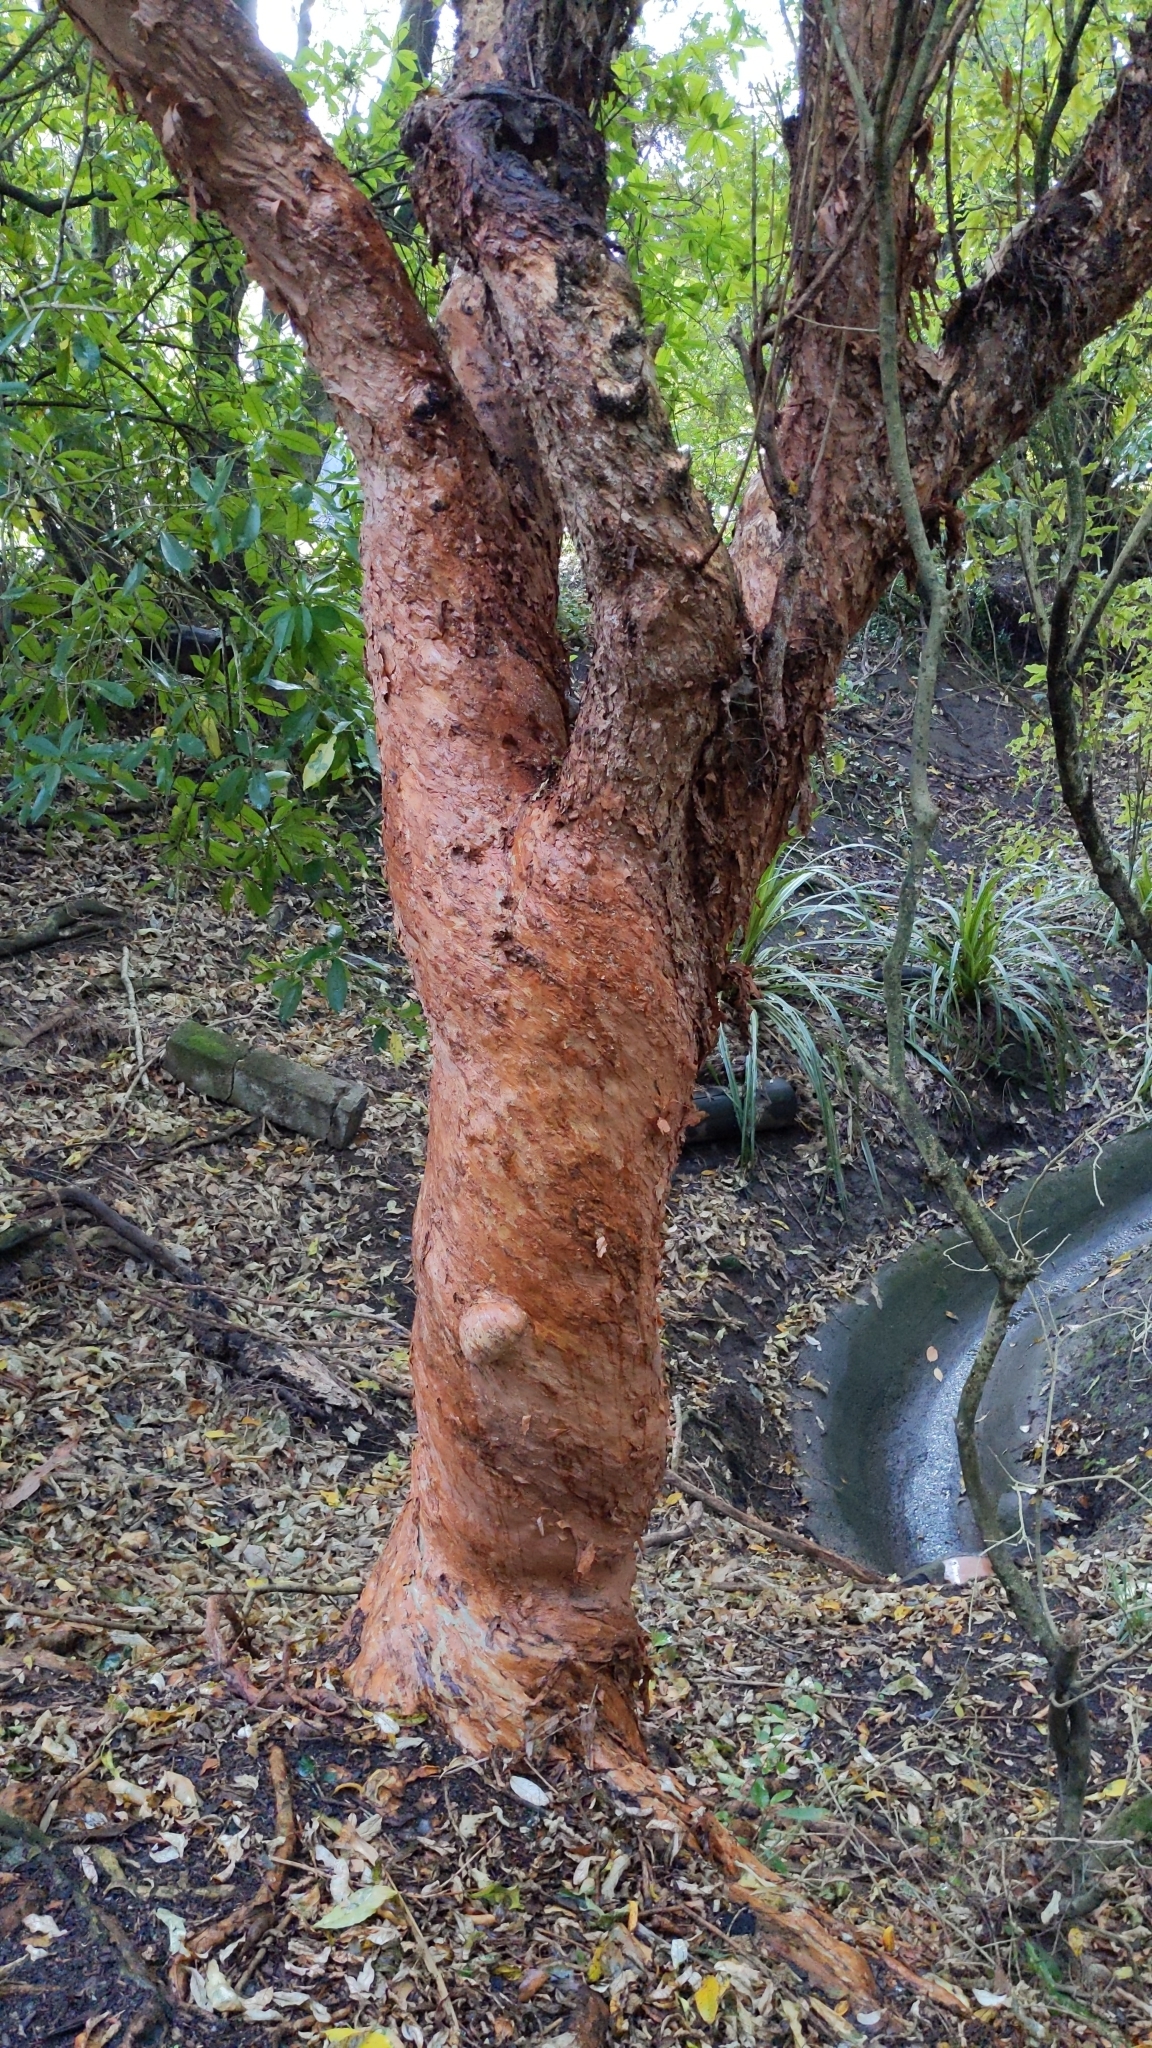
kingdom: Plantae
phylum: Tracheophyta
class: Magnoliopsida
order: Myrtales
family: Onagraceae
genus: Fuchsia
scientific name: Fuchsia excorticata
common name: Tree fuchsia
